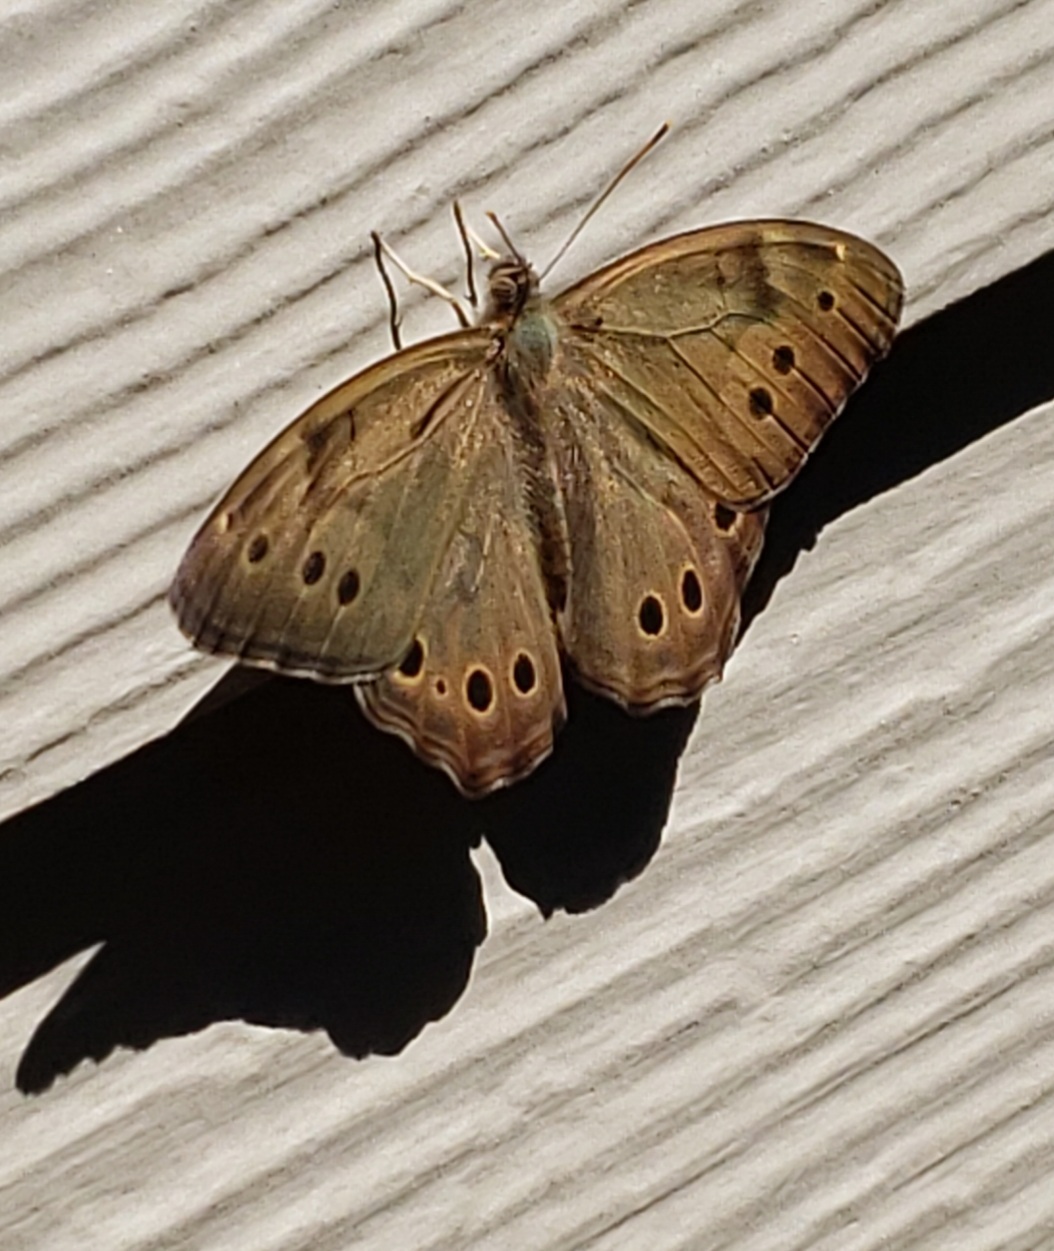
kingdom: Animalia
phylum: Arthropoda
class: Insecta
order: Lepidoptera
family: Nymphalidae
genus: Lethe
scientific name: Lethe anthedon
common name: Northern pearly-eye
